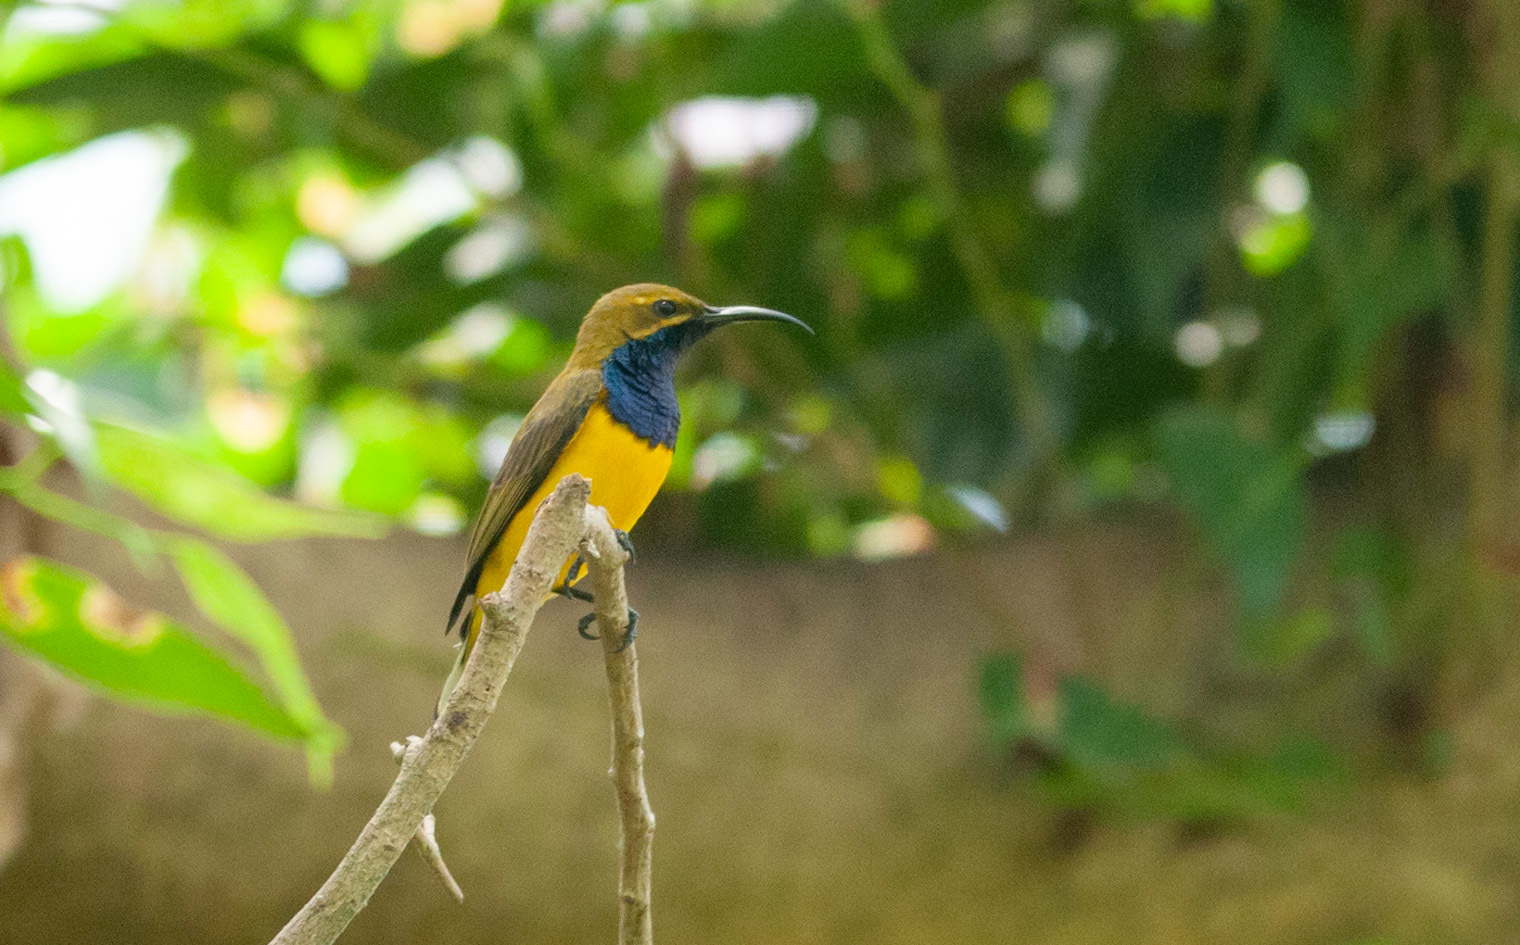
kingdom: Animalia
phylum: Chordata
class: Aves
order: Passeriformes
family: Nectariniidae
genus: Cinnyris
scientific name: Cinnyris
